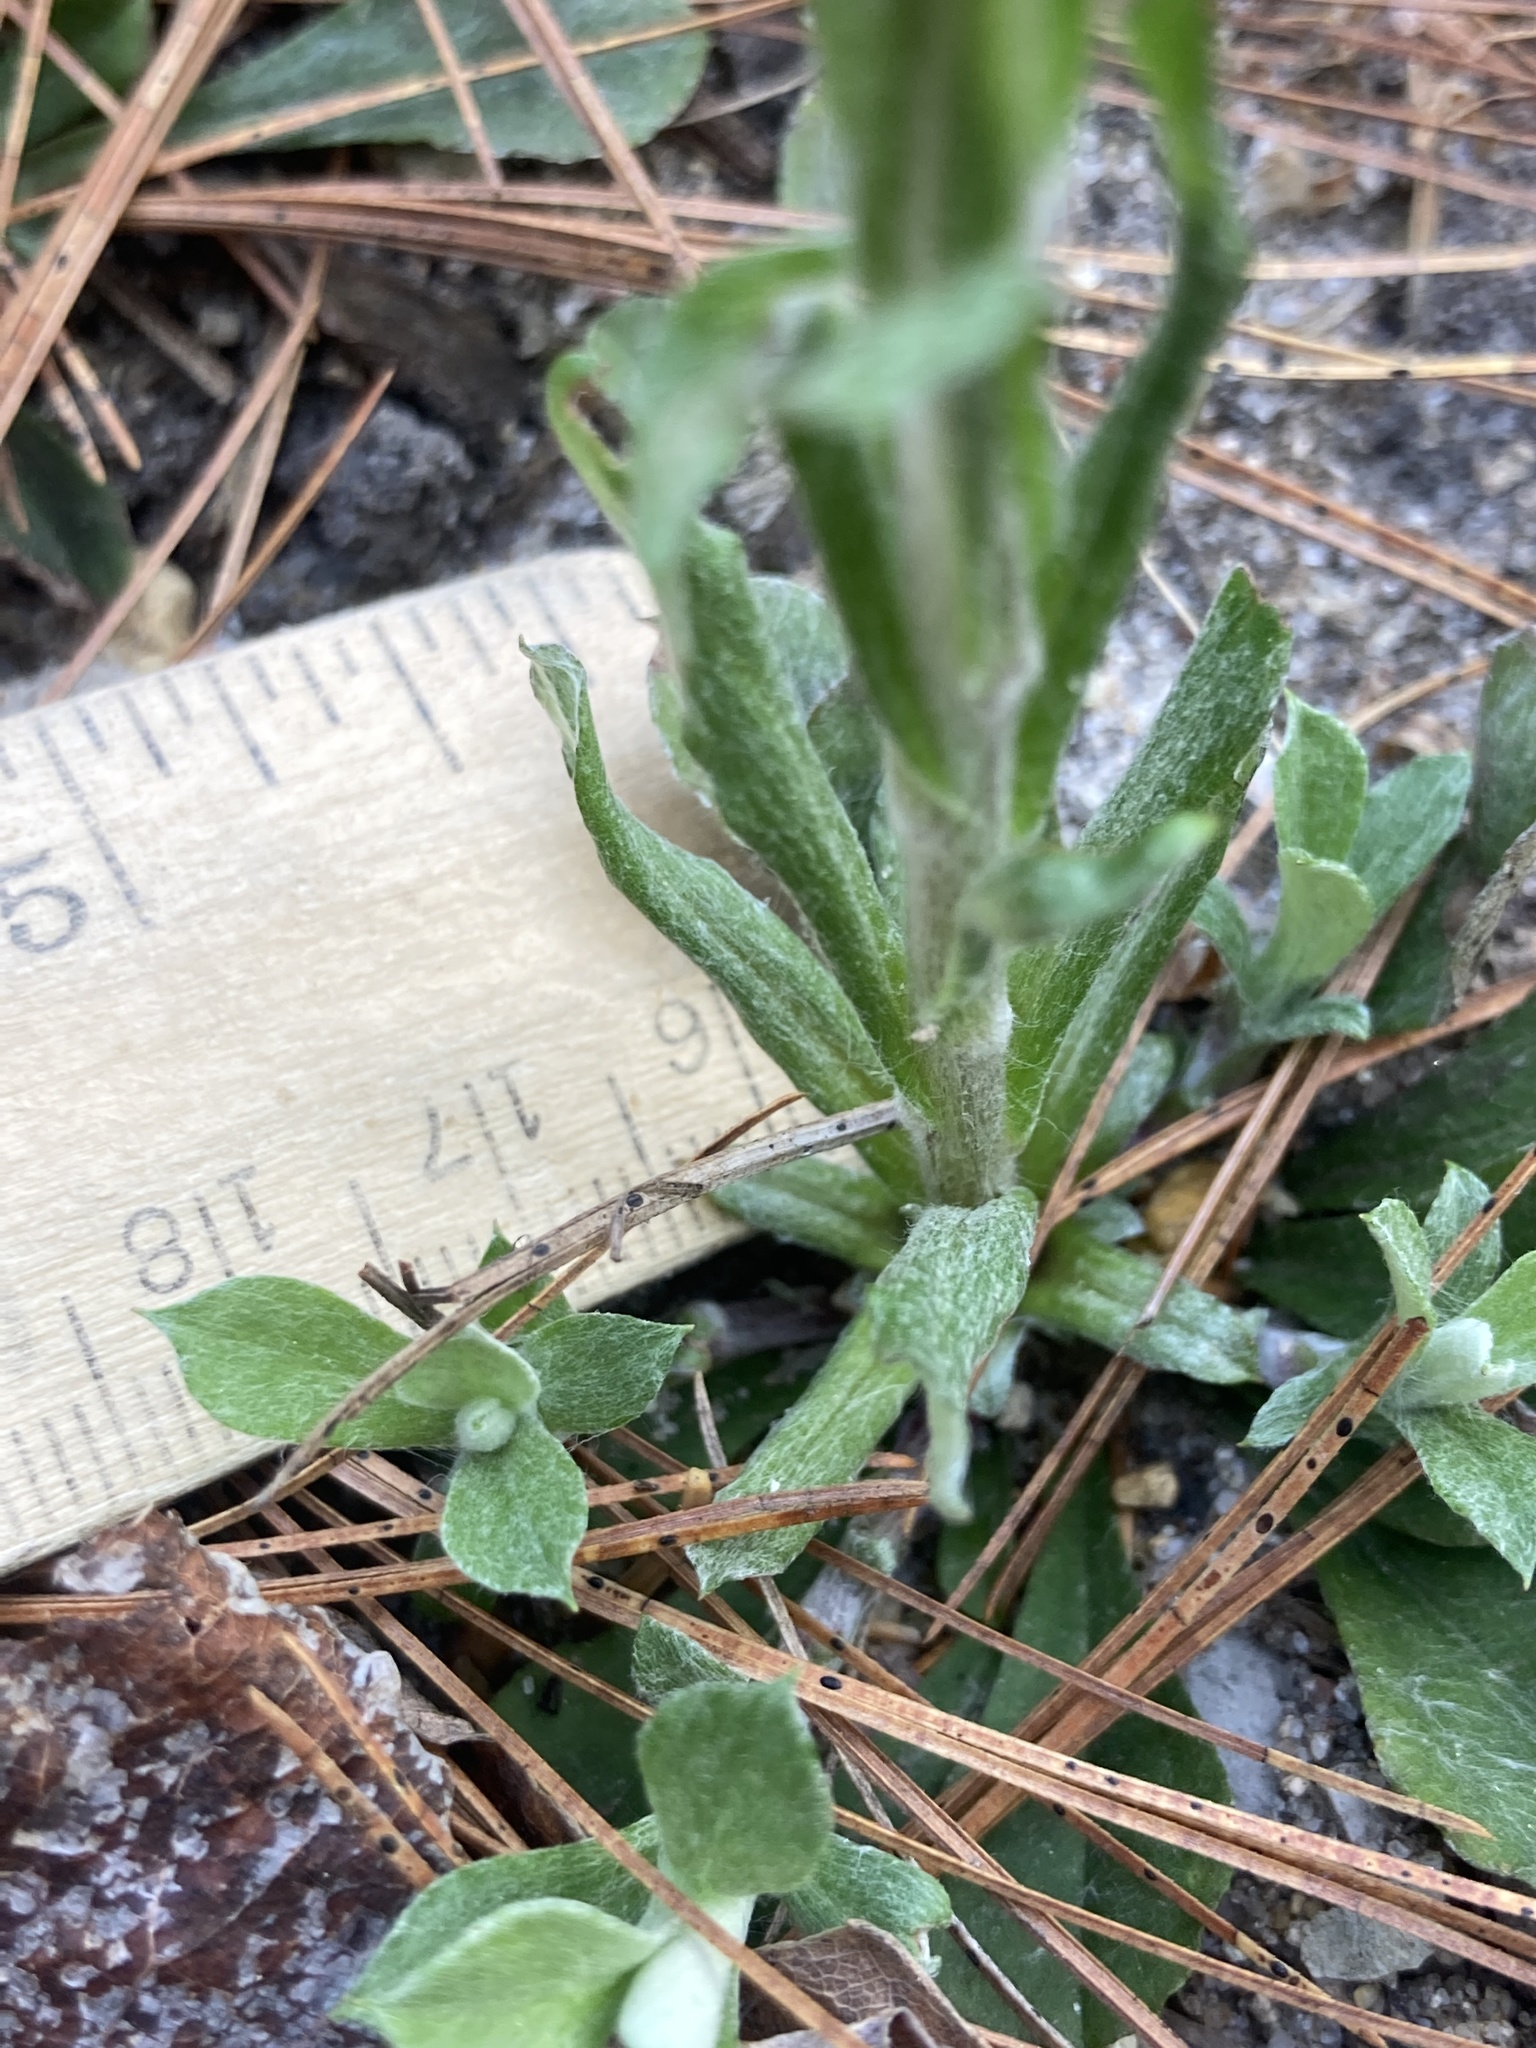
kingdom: Plantae
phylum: Tracheophyta
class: Magnoliopsida
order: Asterales
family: Asteraceae
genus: Antennaria
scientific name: Antennaria howellii
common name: Howell's pussytoes
